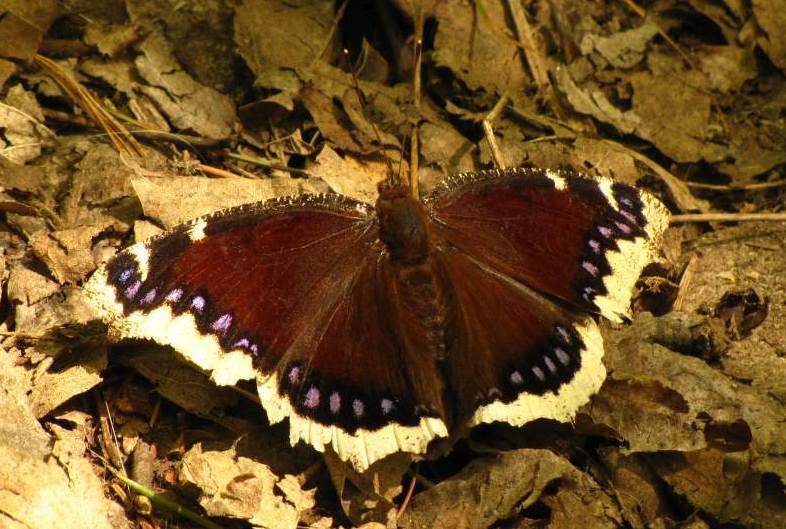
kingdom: Animalia
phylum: Arthropoda
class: Insecta
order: Lepidoptera
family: Nymphalidae
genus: Nymphalis
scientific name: Nymphalis antiopa
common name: Camberwell beauty
